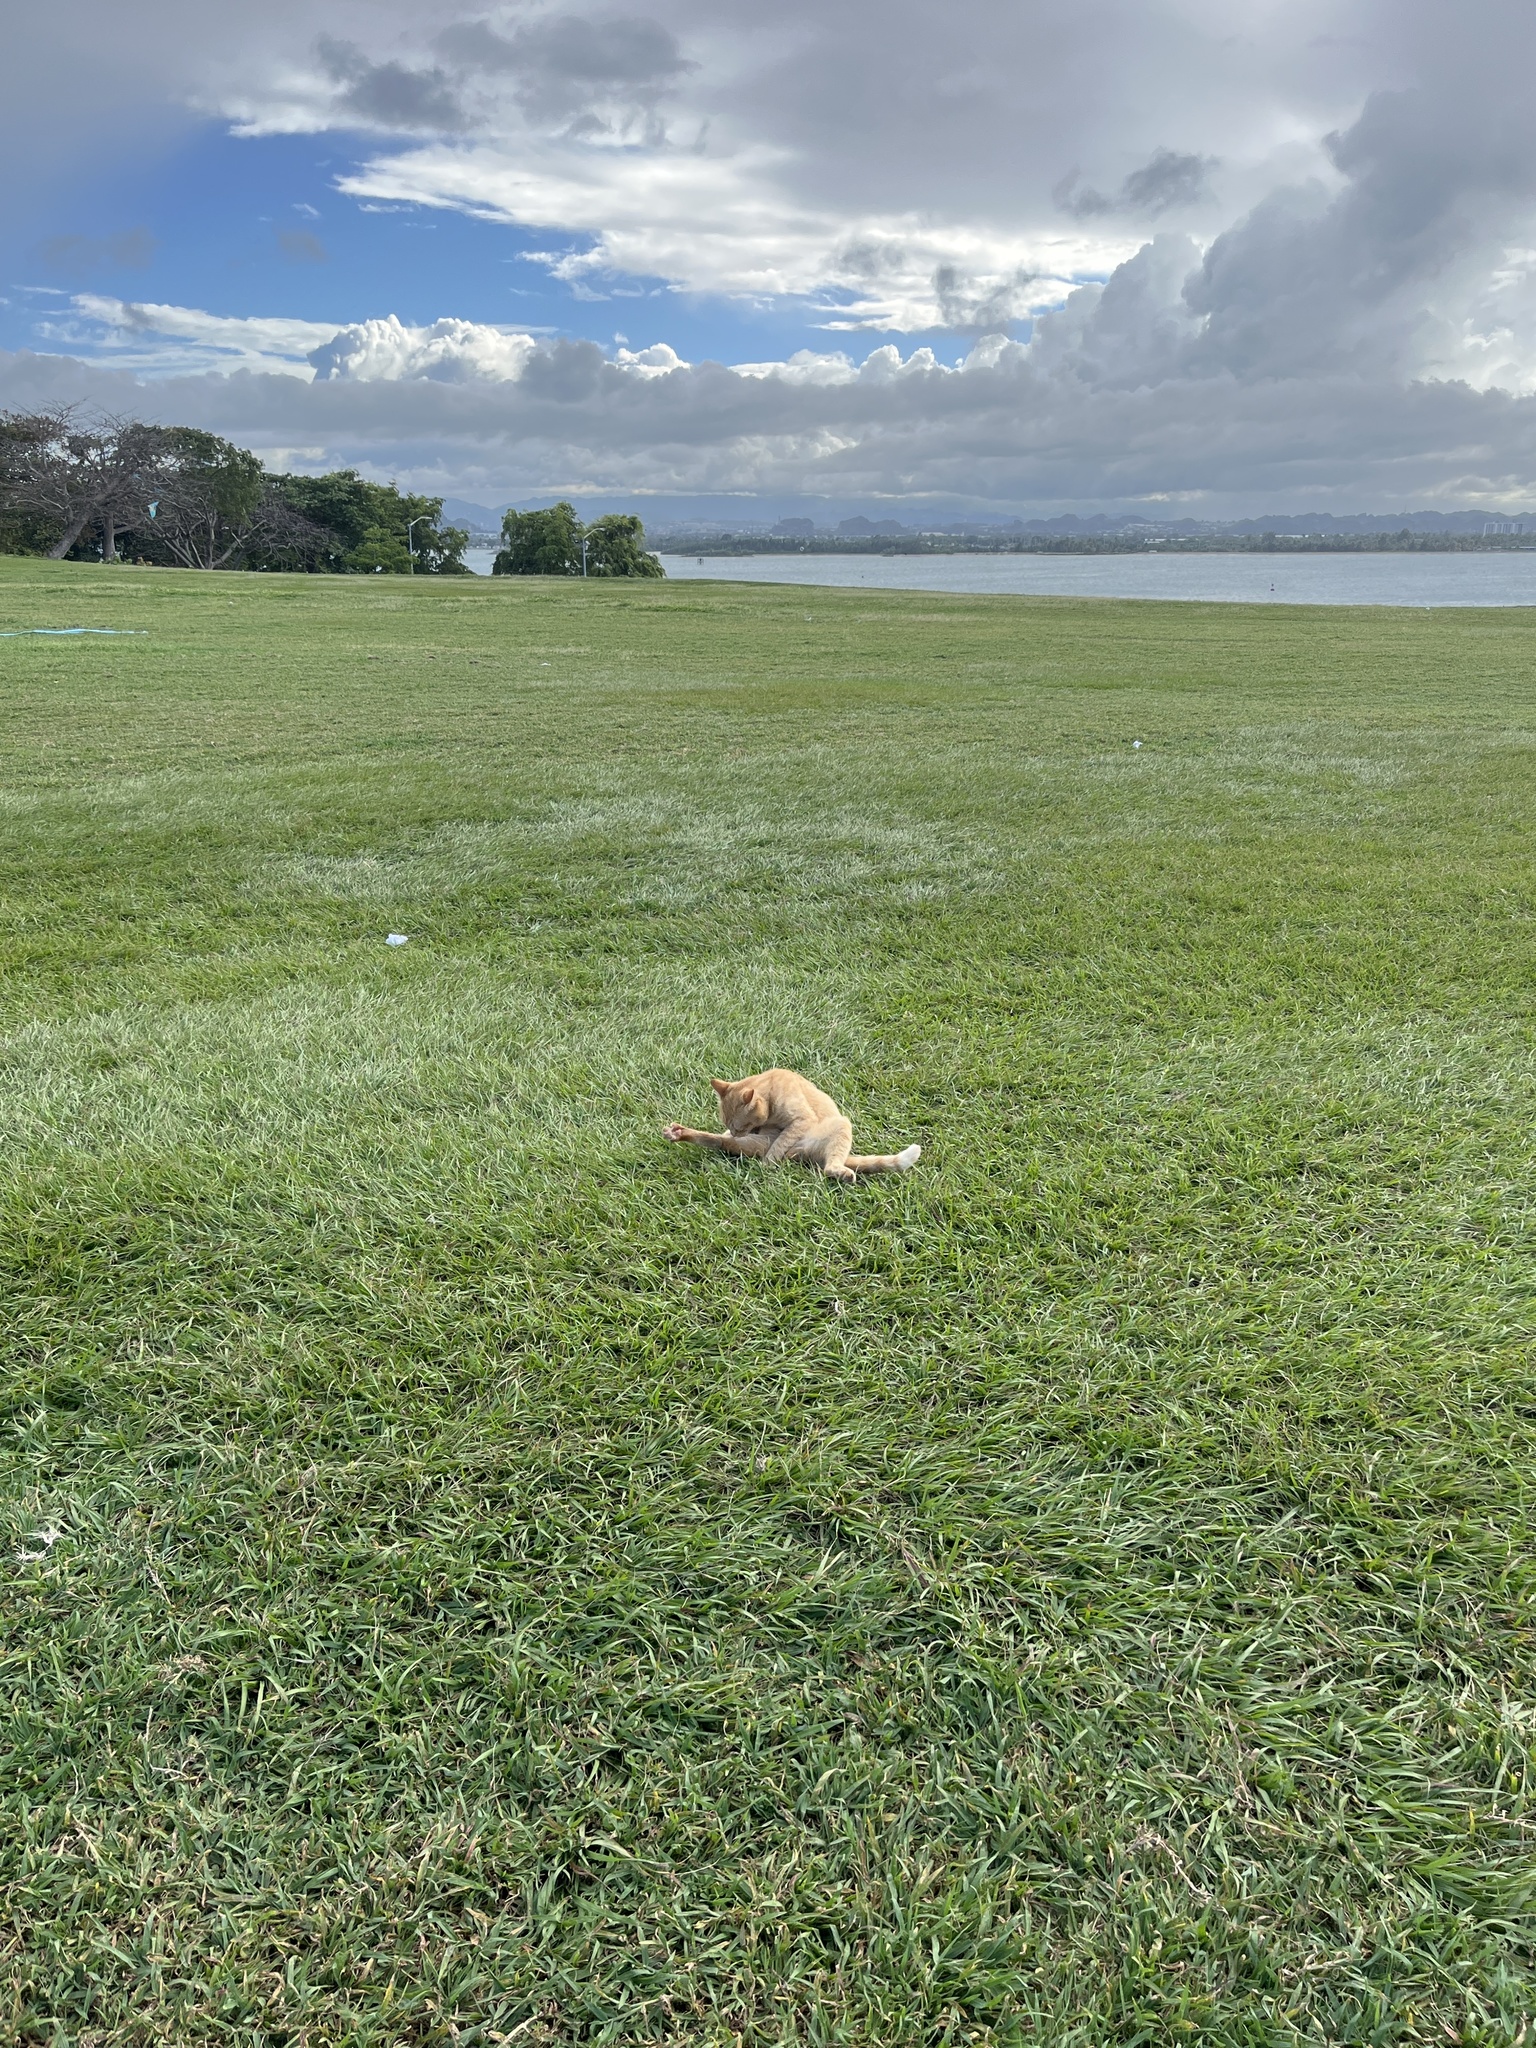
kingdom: Animalia
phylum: Chordata
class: Mammalia
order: Carnivora
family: Felidae
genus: Felis
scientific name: Felis catus
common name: Domestic cat
